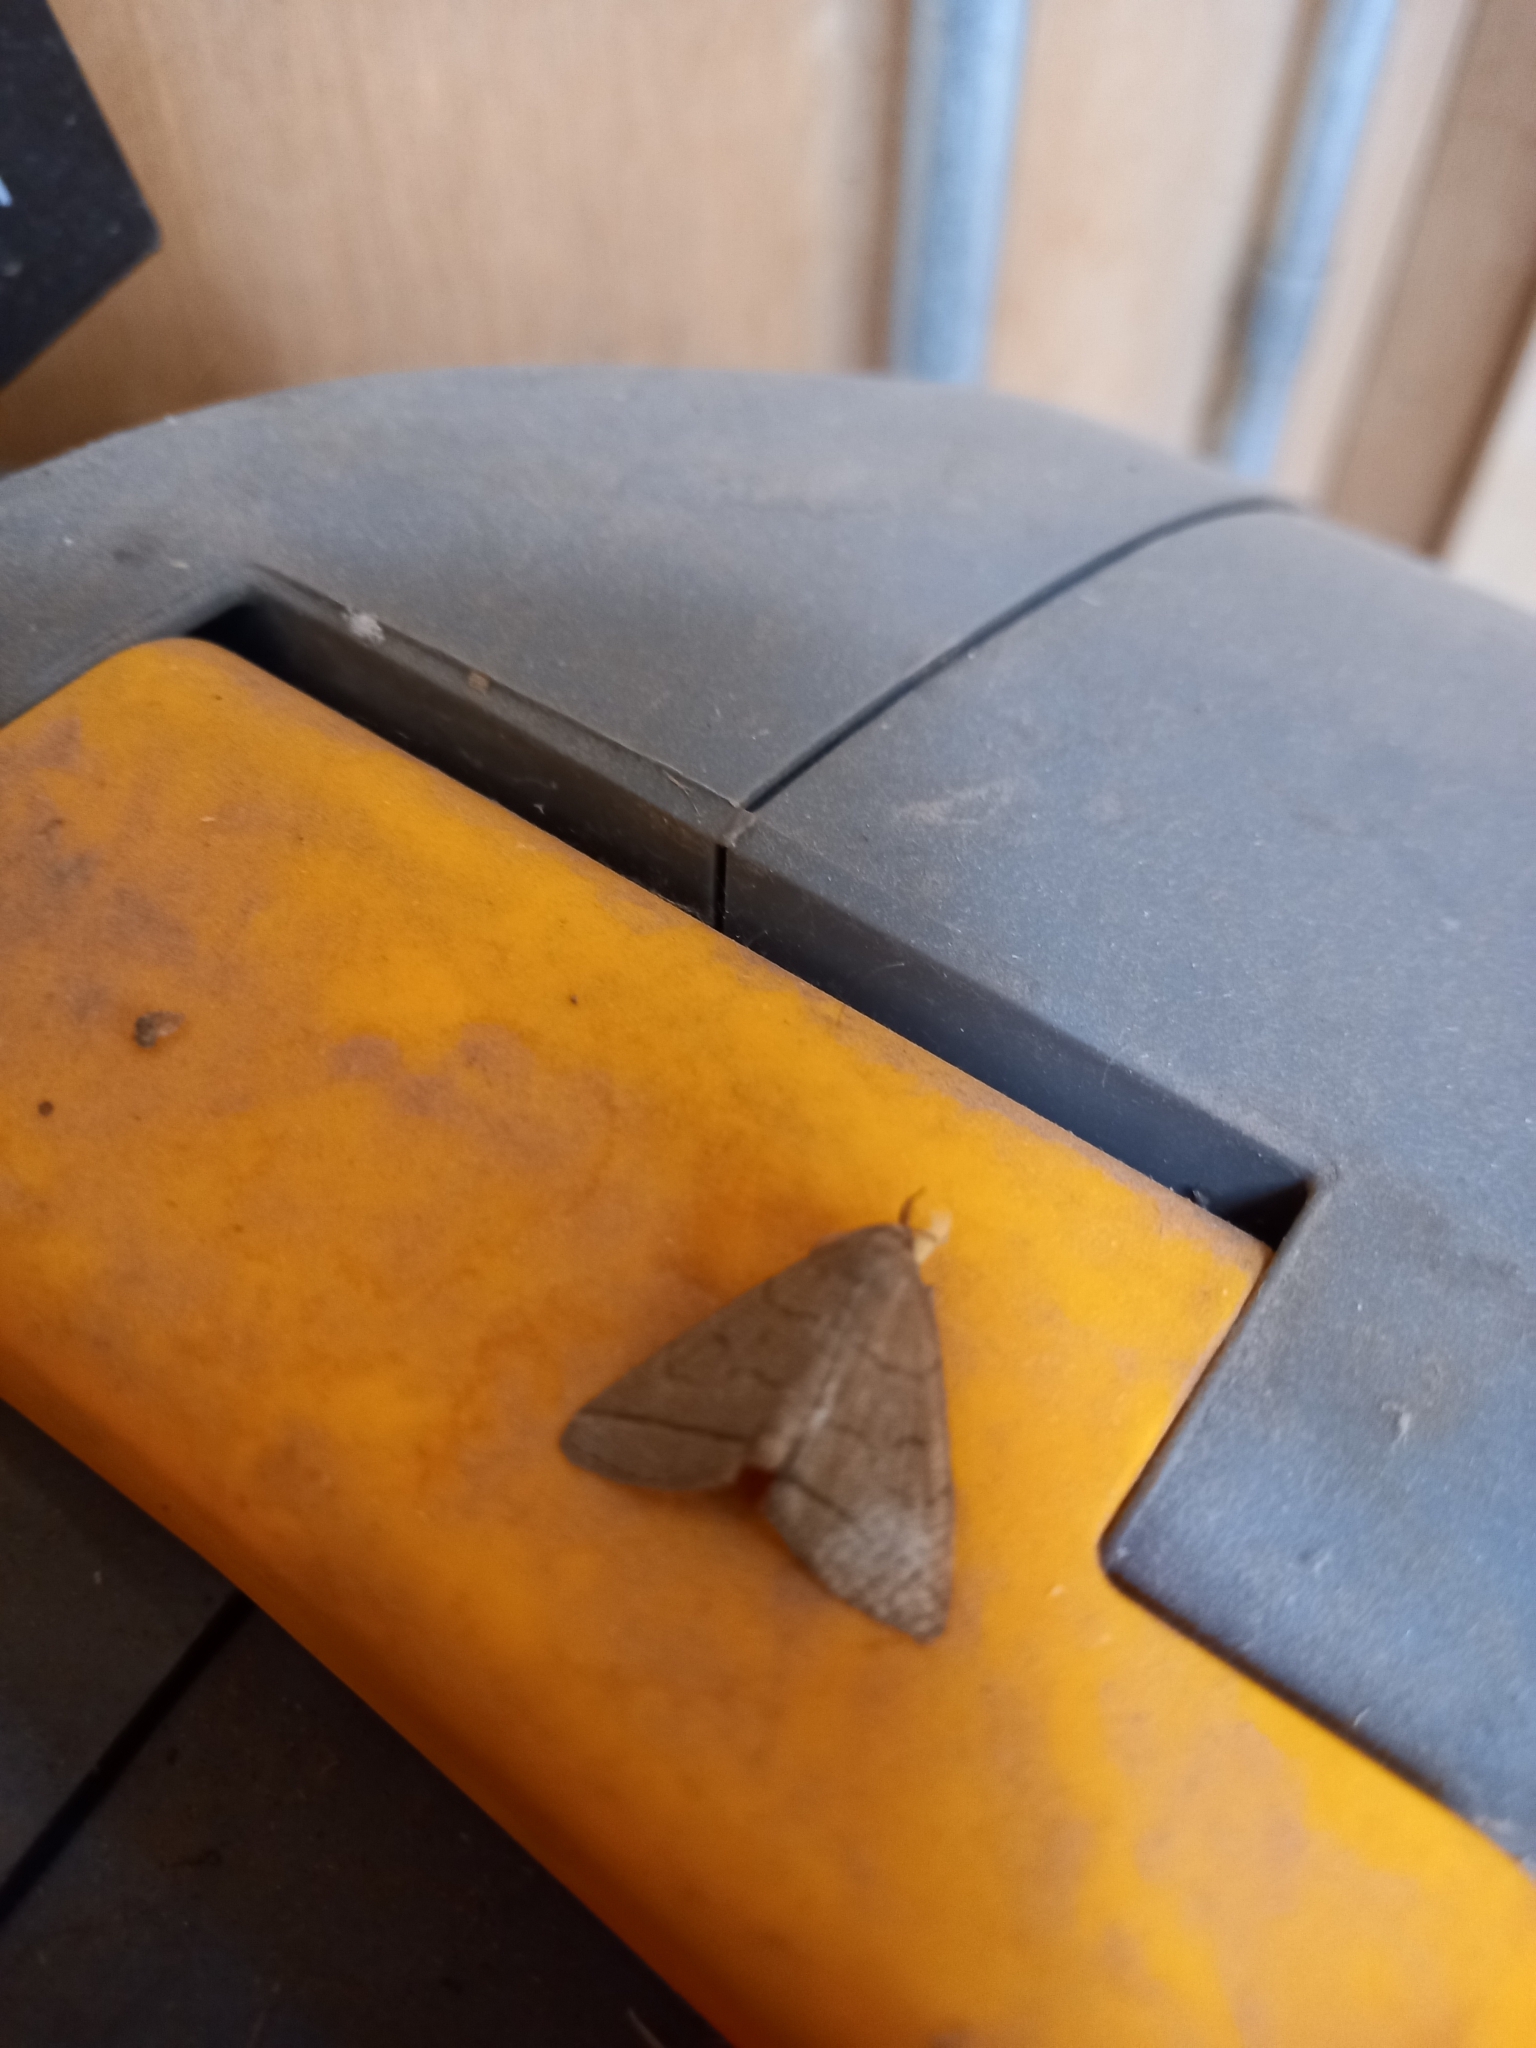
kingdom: Animalia
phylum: Arthropoda
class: Insecta
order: Lepidoptera
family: Erebidae
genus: Herminia
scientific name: Herminia tarsipennalis
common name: Fan-foot
